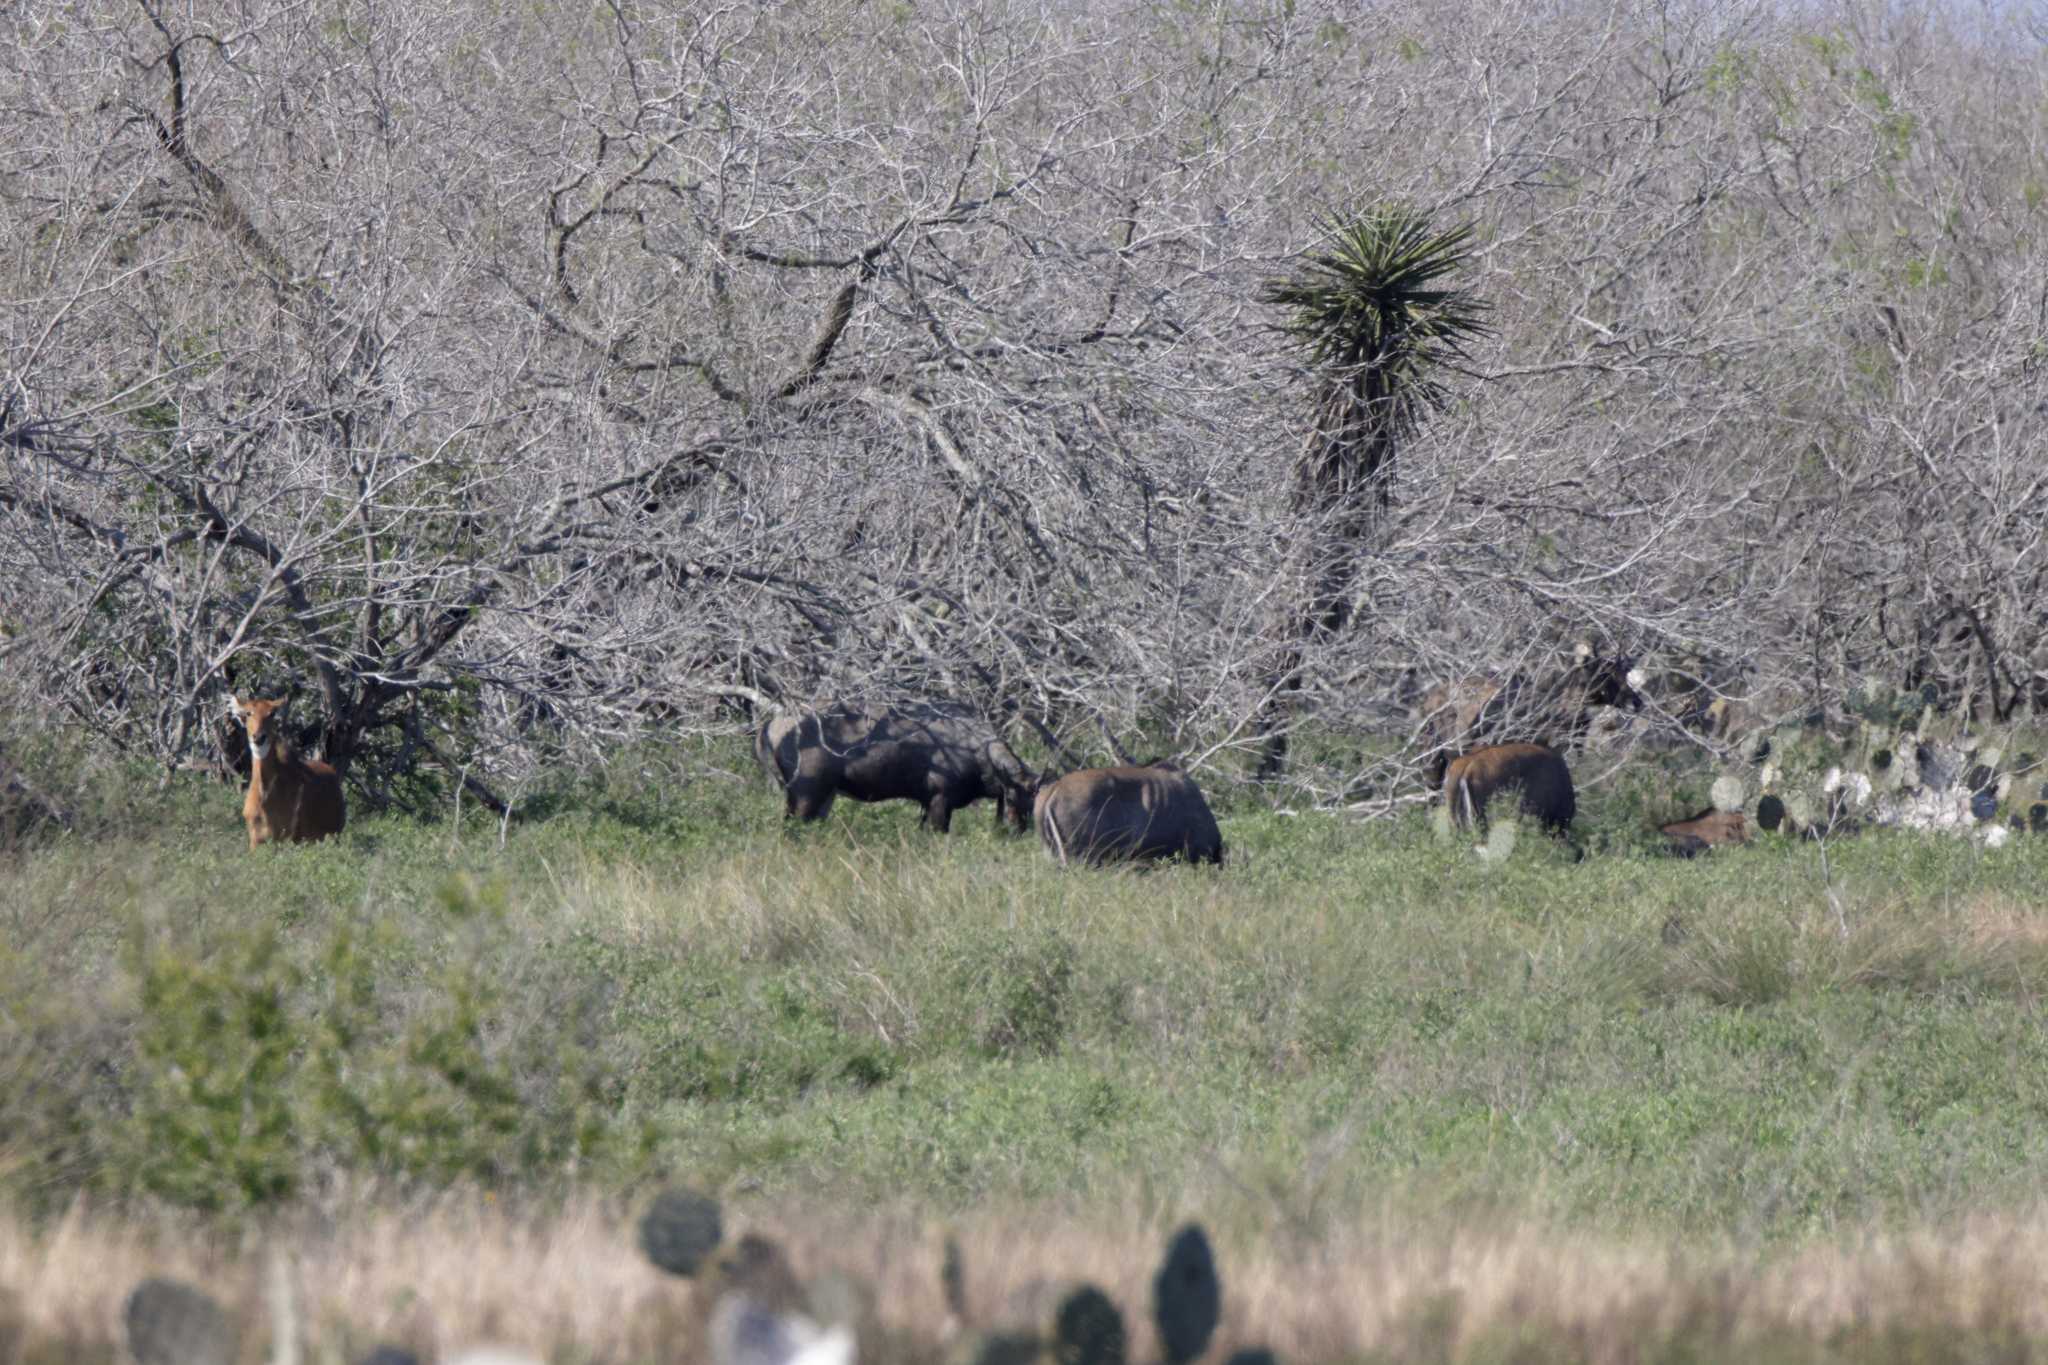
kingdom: Animalia
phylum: Chordata
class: Mammalia
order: Artiodactyla
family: Bovidae
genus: Boselaphus
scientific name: Boselaphus tragocamelus
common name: Nilgai
